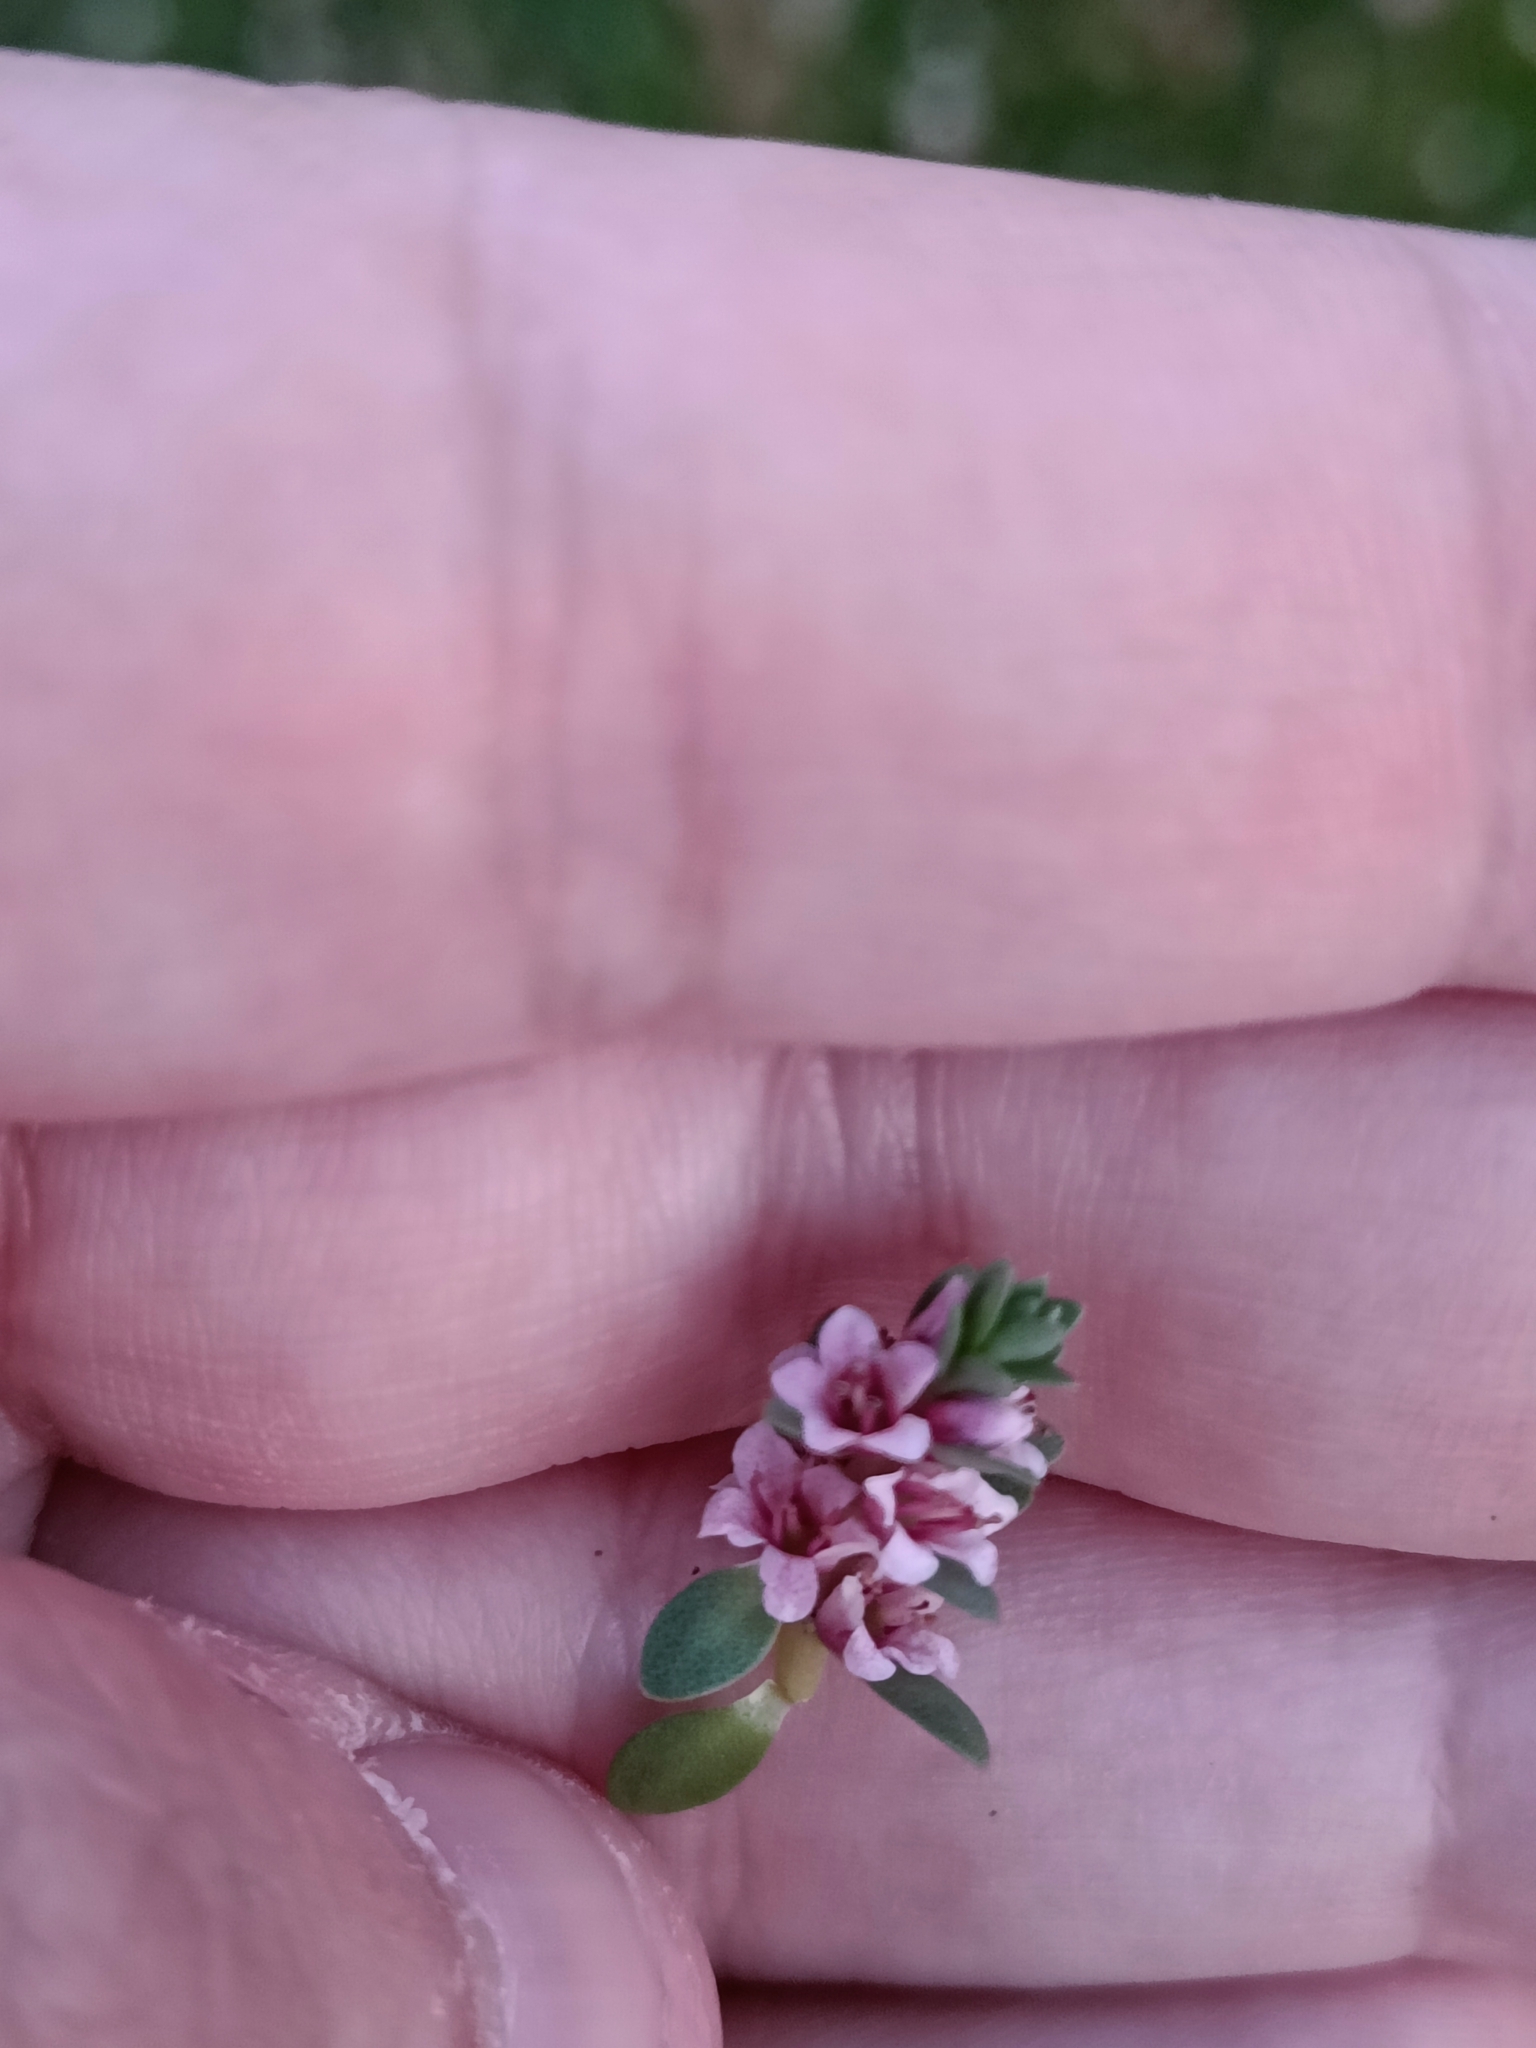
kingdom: Plantae
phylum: Tracheophyta
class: Magnoliopsida
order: Ericales
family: Primulaceae
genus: Lysimachia
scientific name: Lysimachia maritima
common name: Sea milkwort
